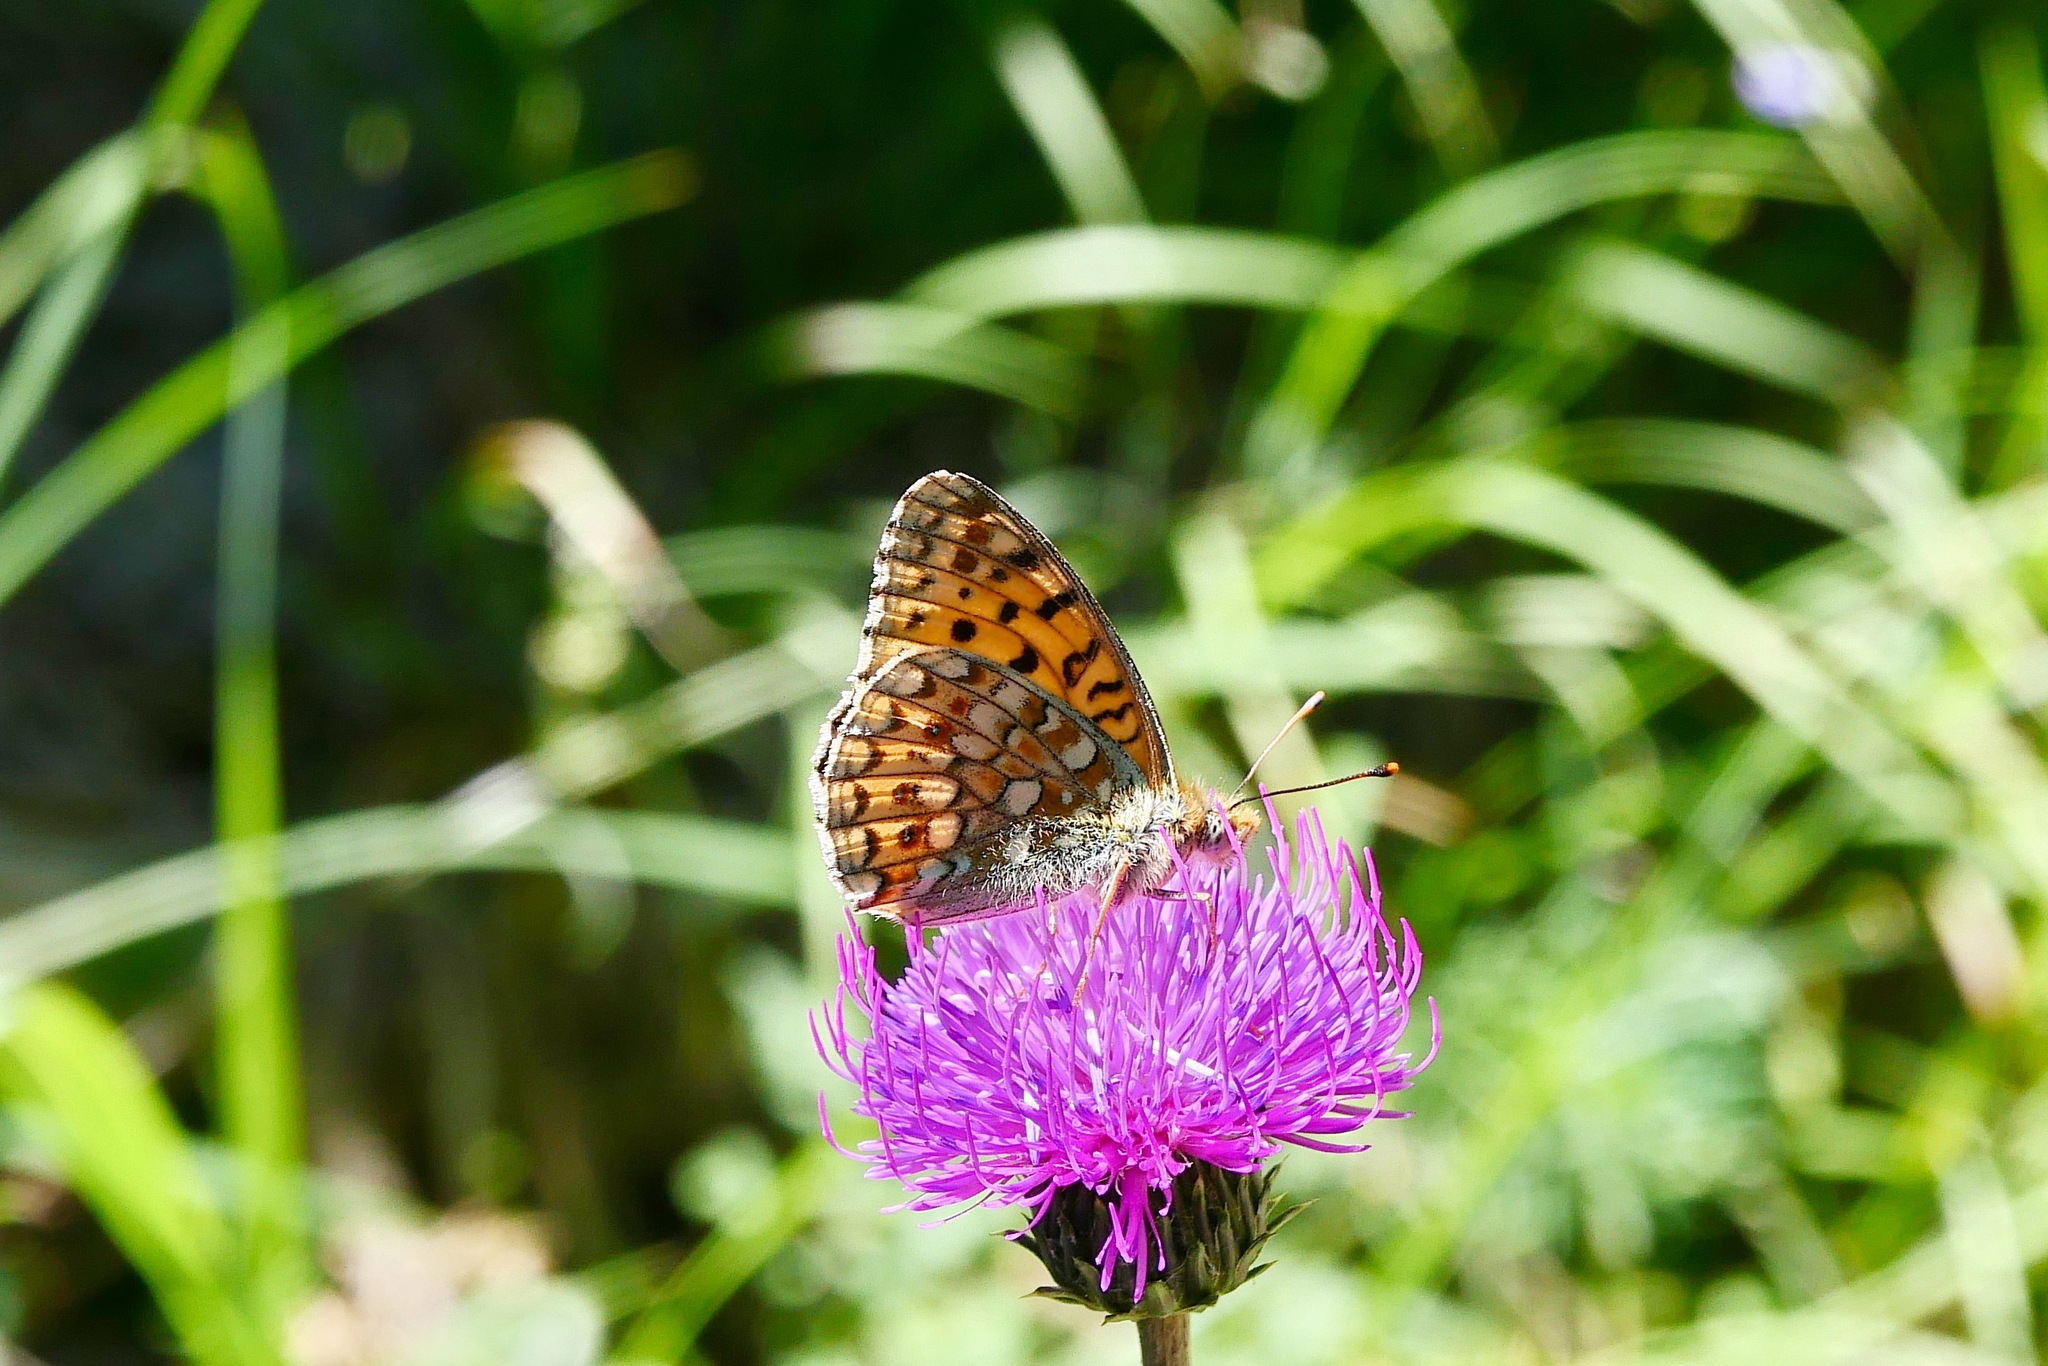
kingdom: Animalia
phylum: Arthropoda
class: Insecta
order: Lepidoptera
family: Nymphalidae
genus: Fabriciana
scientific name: Fabriciana niobe
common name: Niobe fritillary
